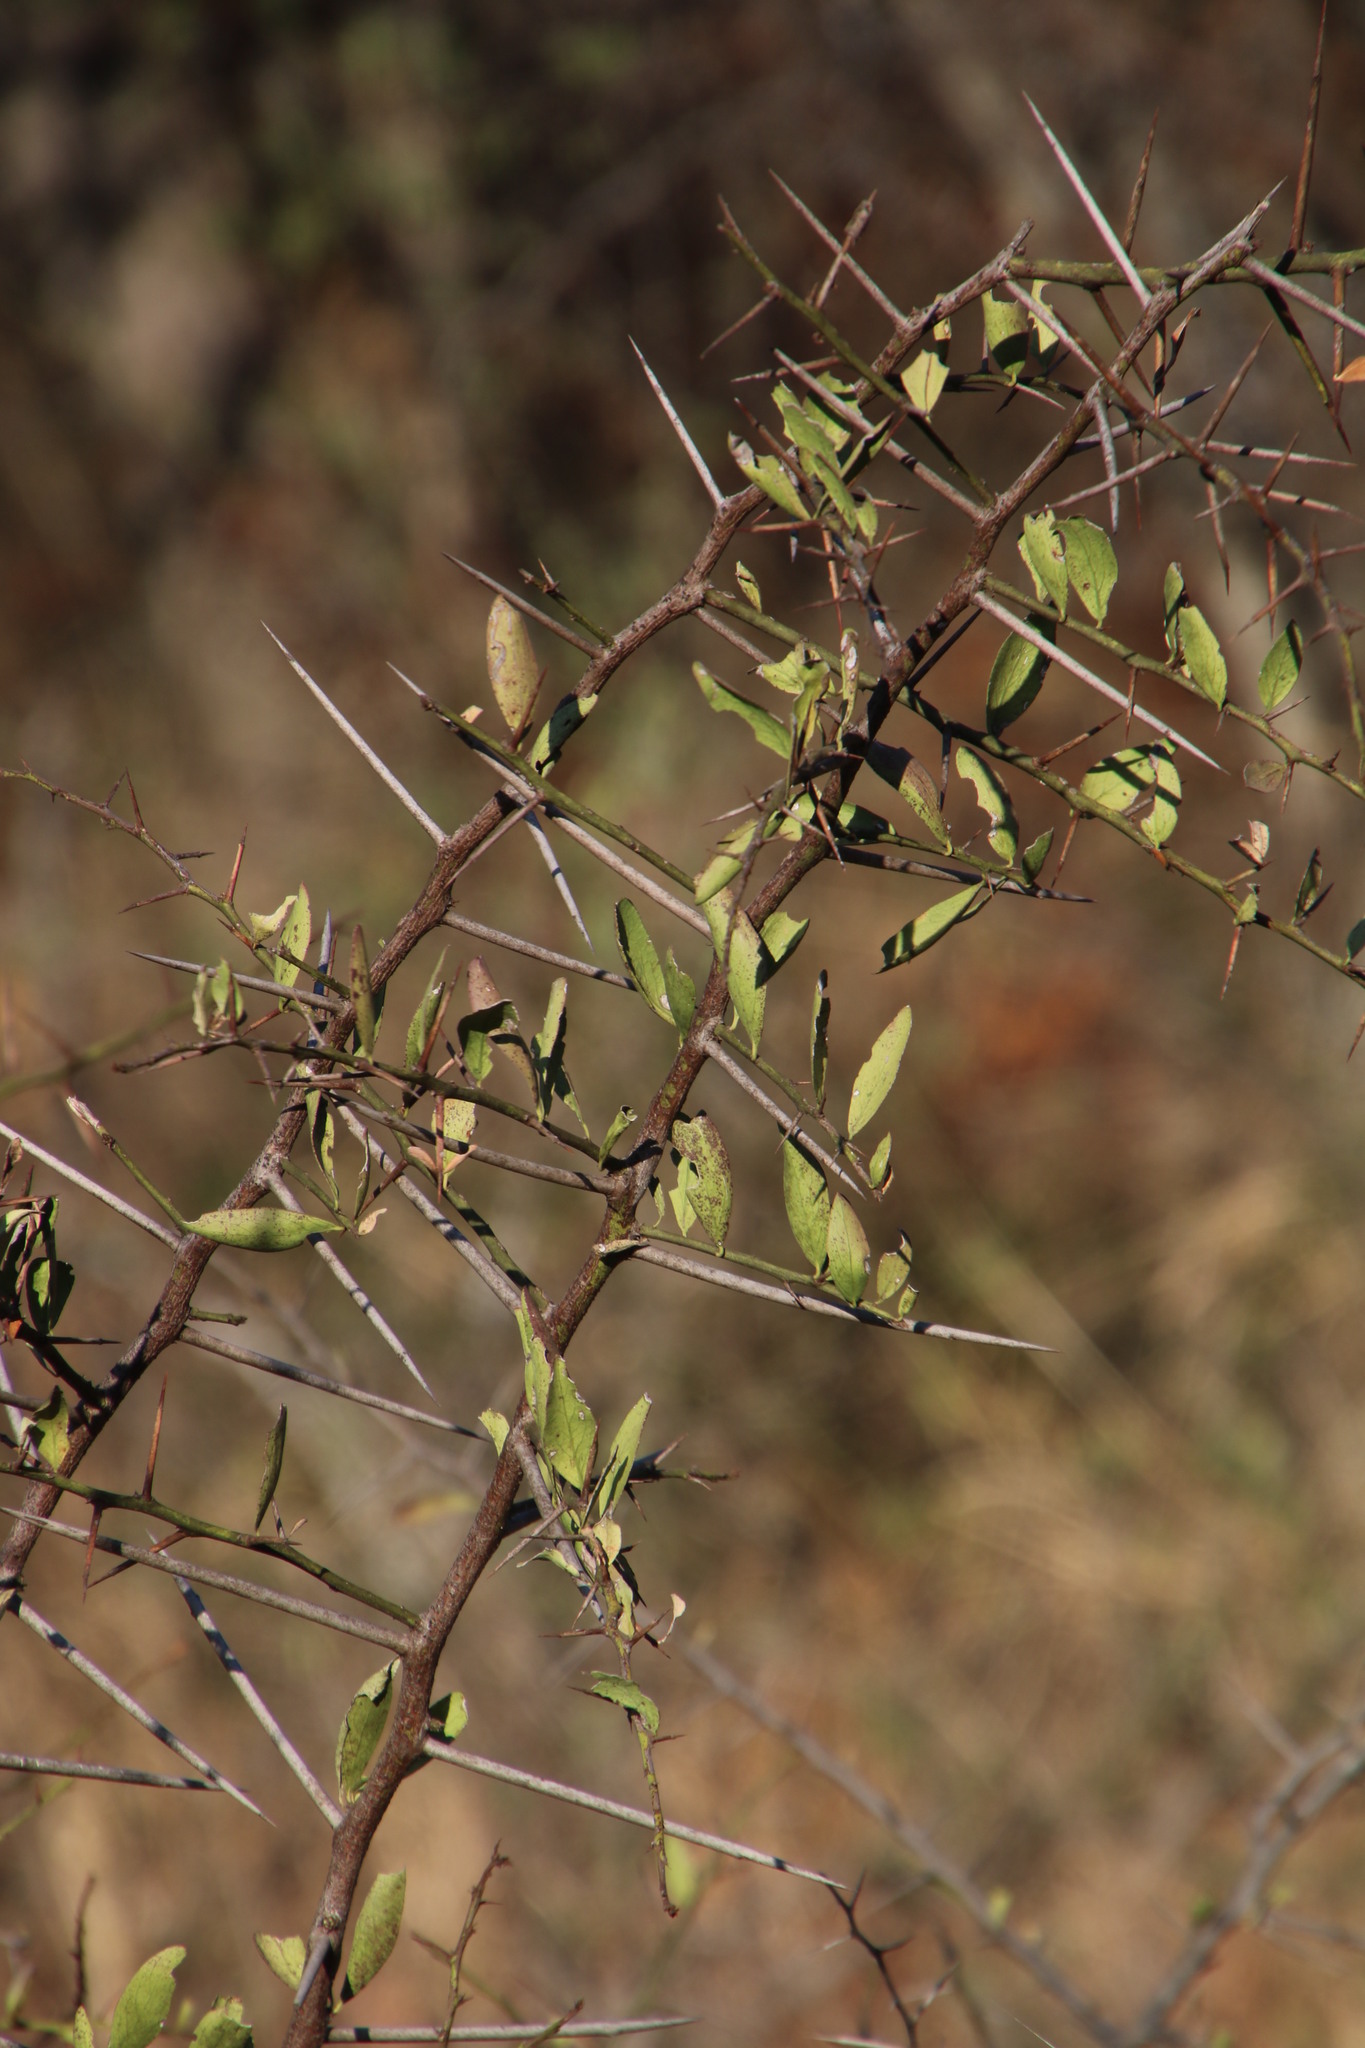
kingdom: Plantae
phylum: Tracheophyta
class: Magnoliopsida
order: Celastrales
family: Celastraceae
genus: Gymnosporia
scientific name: Gymnosporia senegalensis
